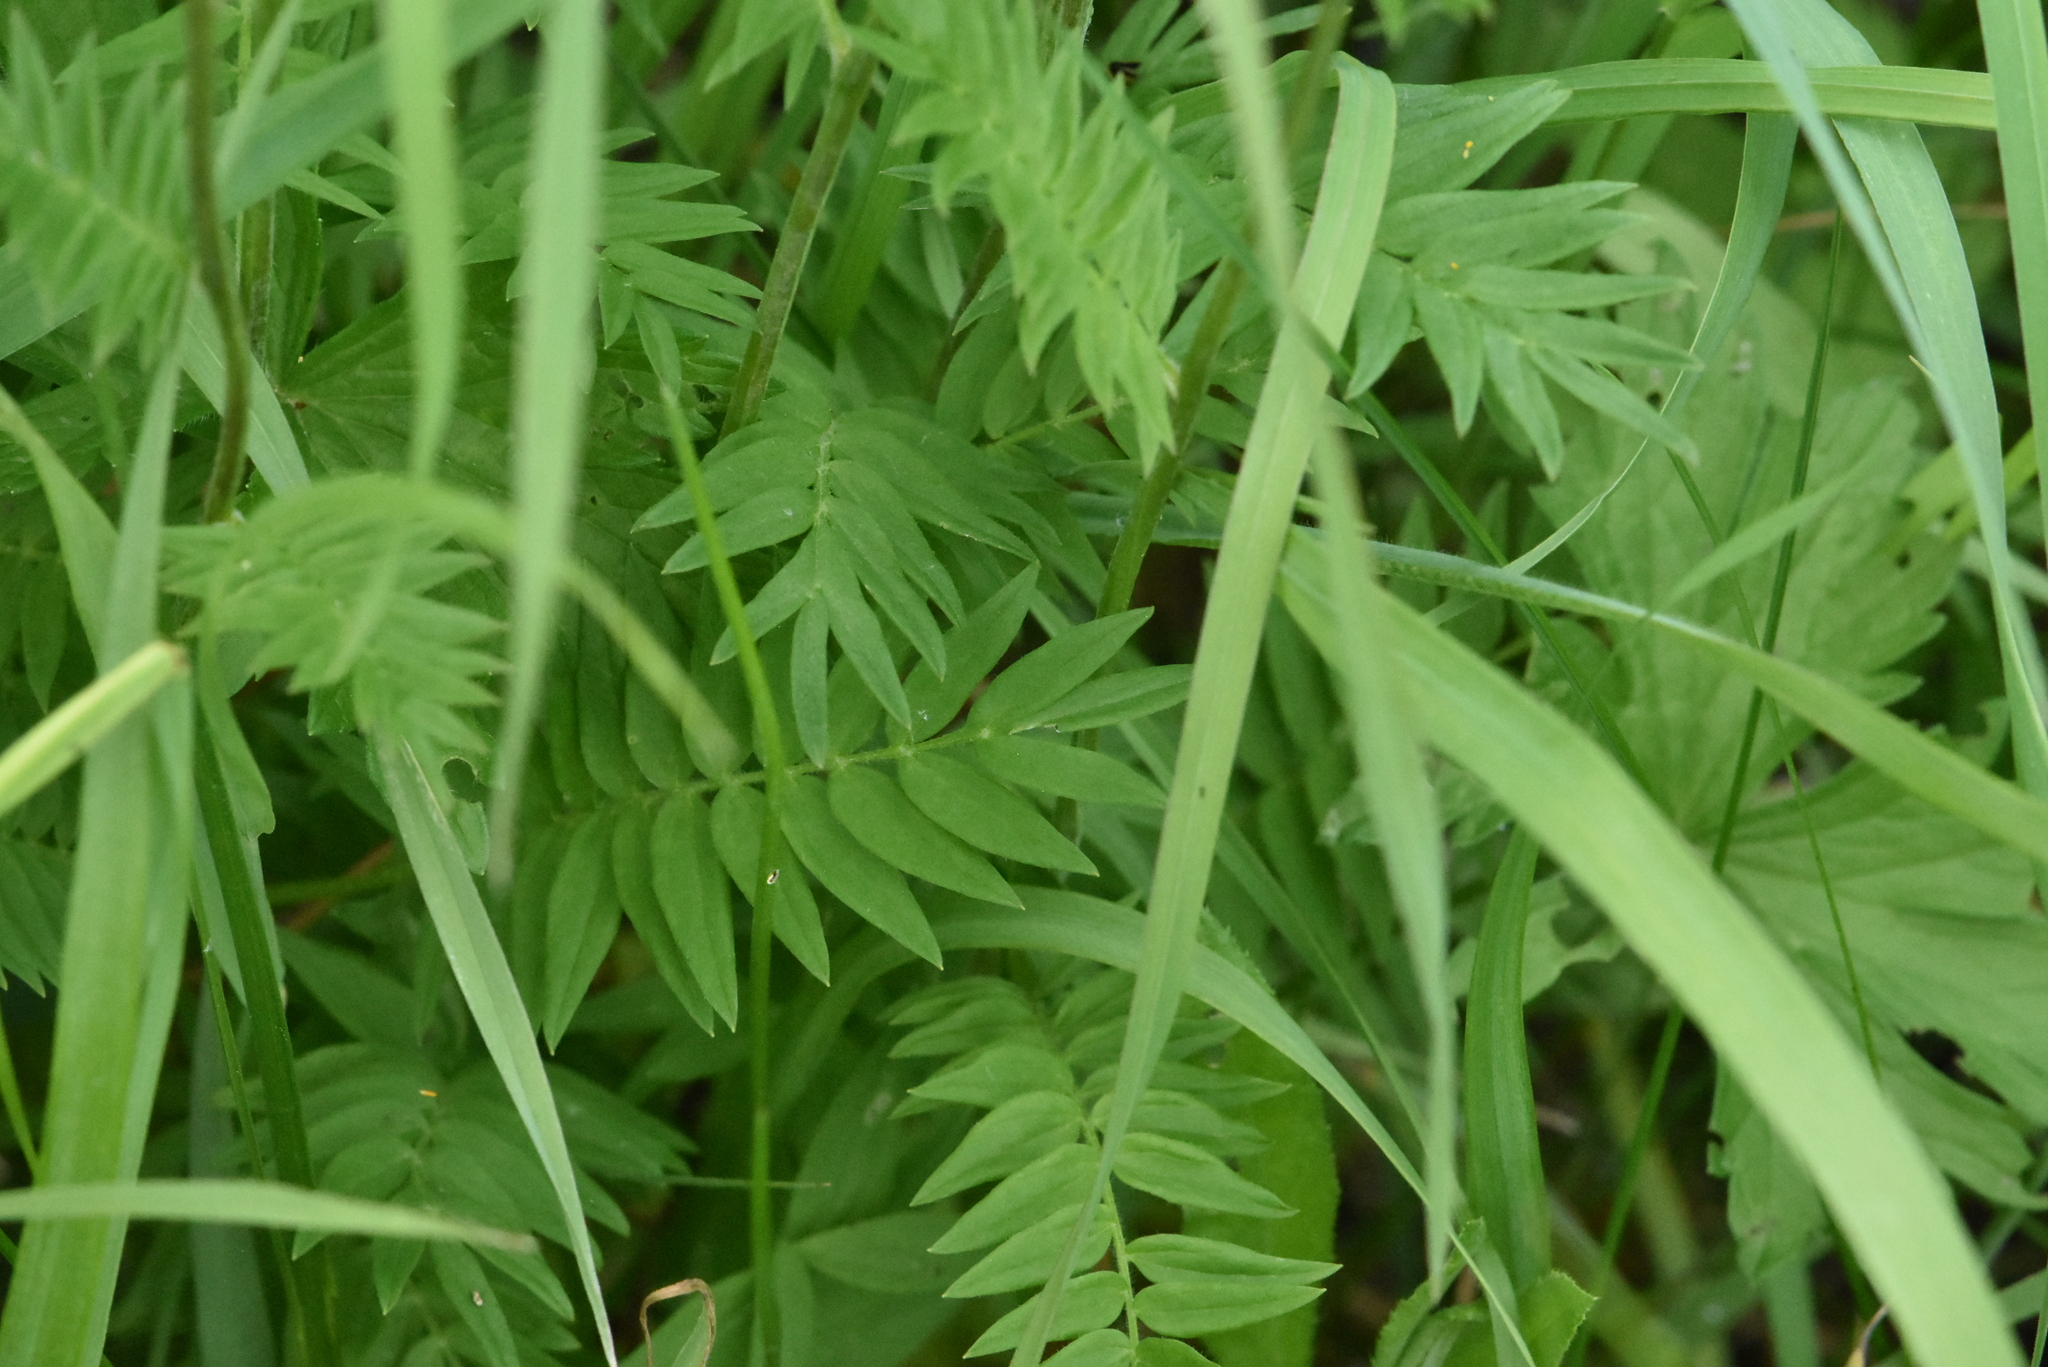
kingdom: Plantae
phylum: Tracheophyta
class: Magnoliopsida
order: Ericales
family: Polemoniaceae
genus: Polemonium
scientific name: Polemonium caeruleum
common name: Jacob's-ladder
